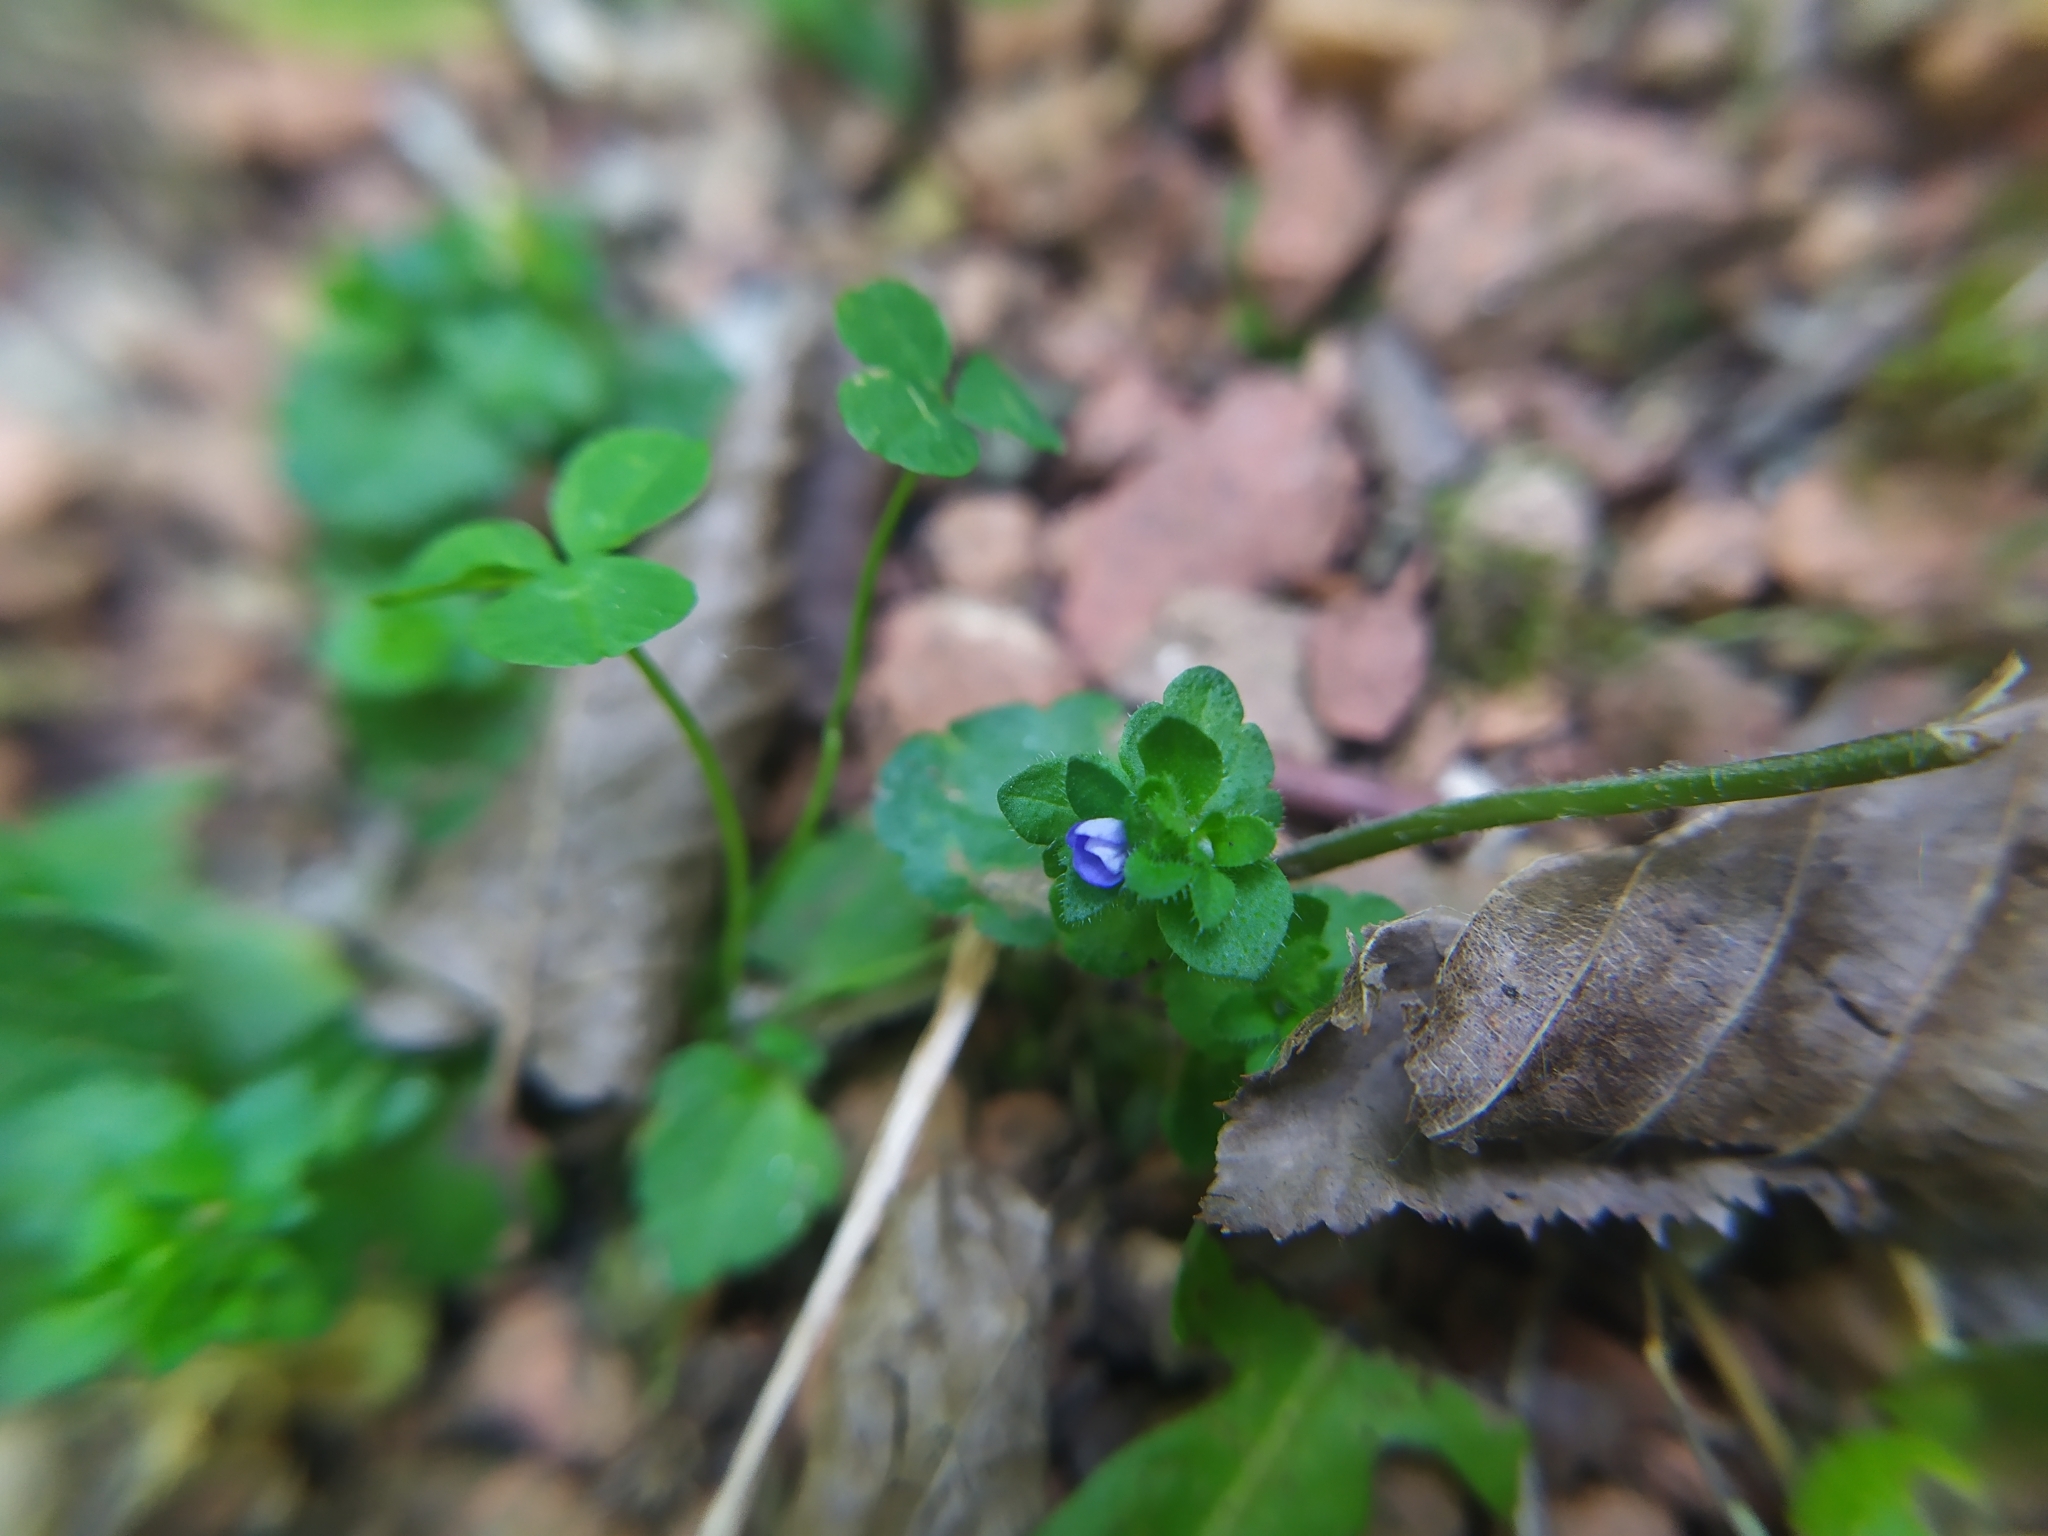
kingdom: Plantae
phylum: Tracheophyta
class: Magnoliopsida
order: Lamiales
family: Plantaginaceae
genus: Veronica
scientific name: Veronica arvensis
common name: Corn speedwell
